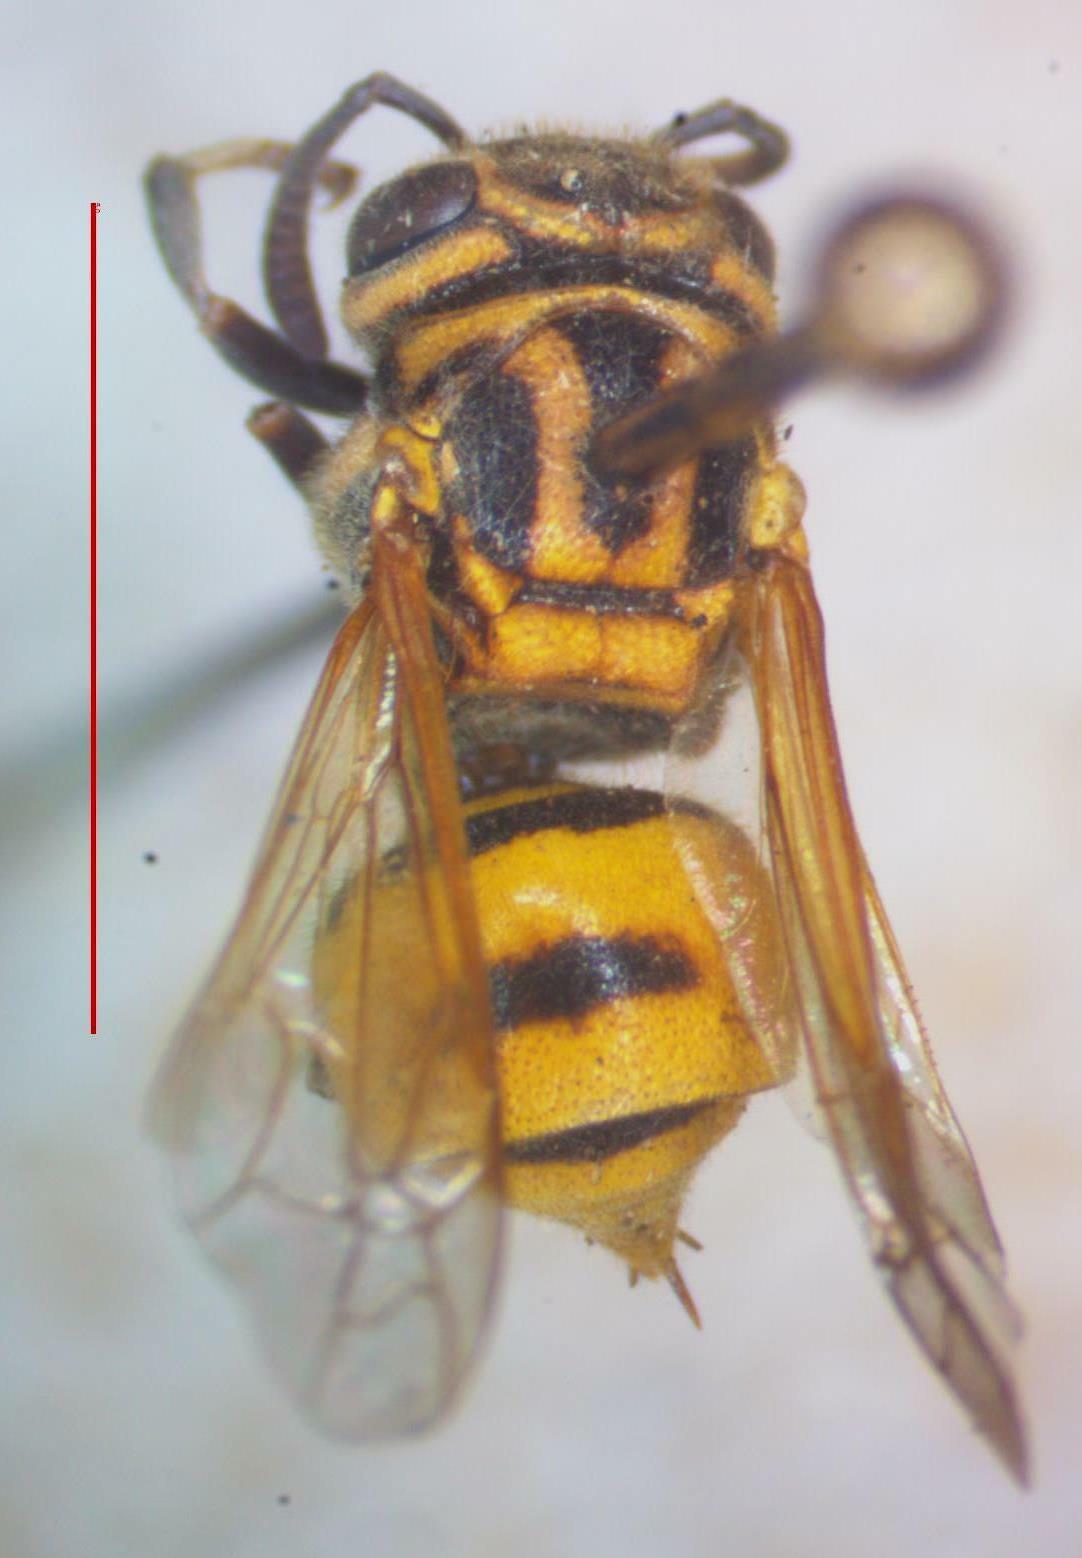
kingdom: Animalia
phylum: Arthropoda
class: Insecta
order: Hymenoptera
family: Vespidae
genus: Brachygastra
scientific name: Brachygastra smithii
